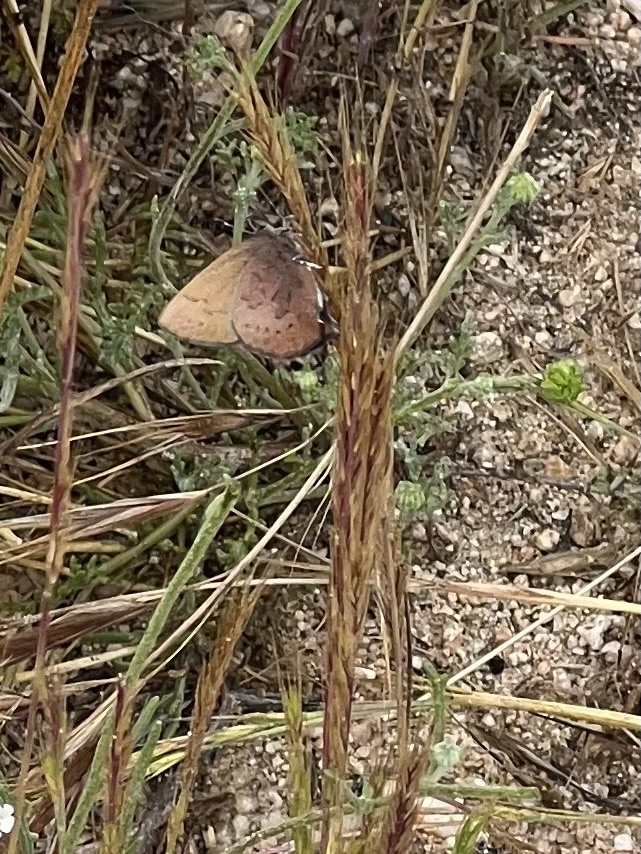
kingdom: Animalia
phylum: Arthropoda
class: Insecta
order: Lepidoptera
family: Lycaenidae
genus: Incisalia
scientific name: Incisalia irioides
